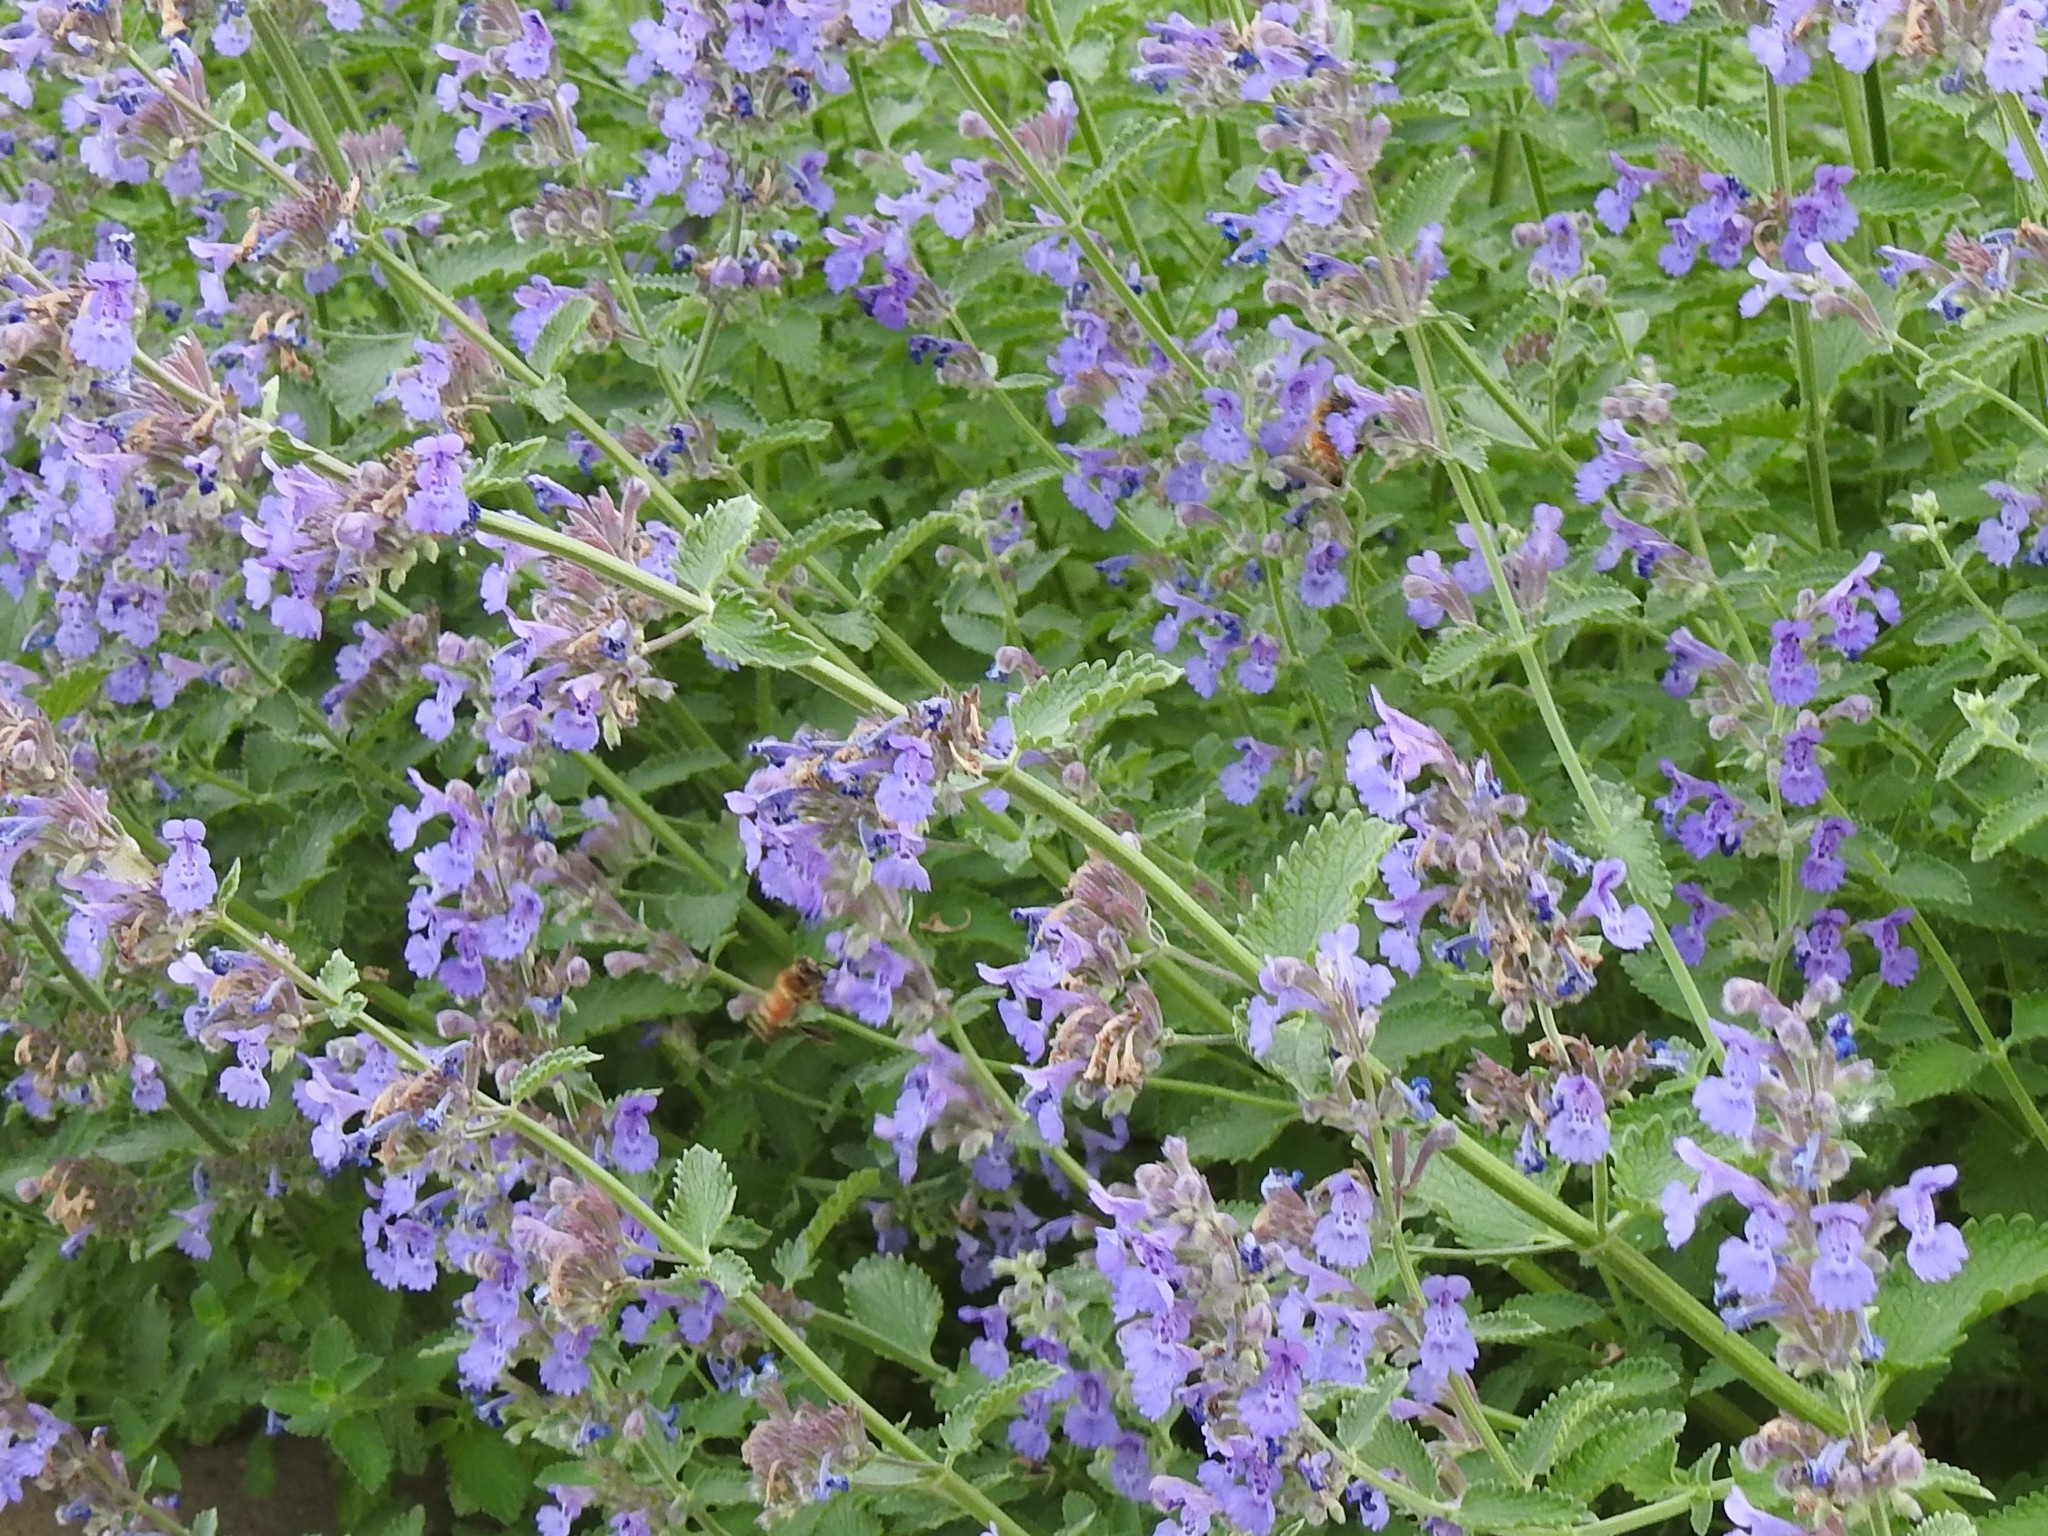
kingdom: Animalia
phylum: Arthropoda
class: Insecta
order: Hymenoptera
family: Apidae
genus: Apis
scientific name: Apis mellifera
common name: Honey bee
